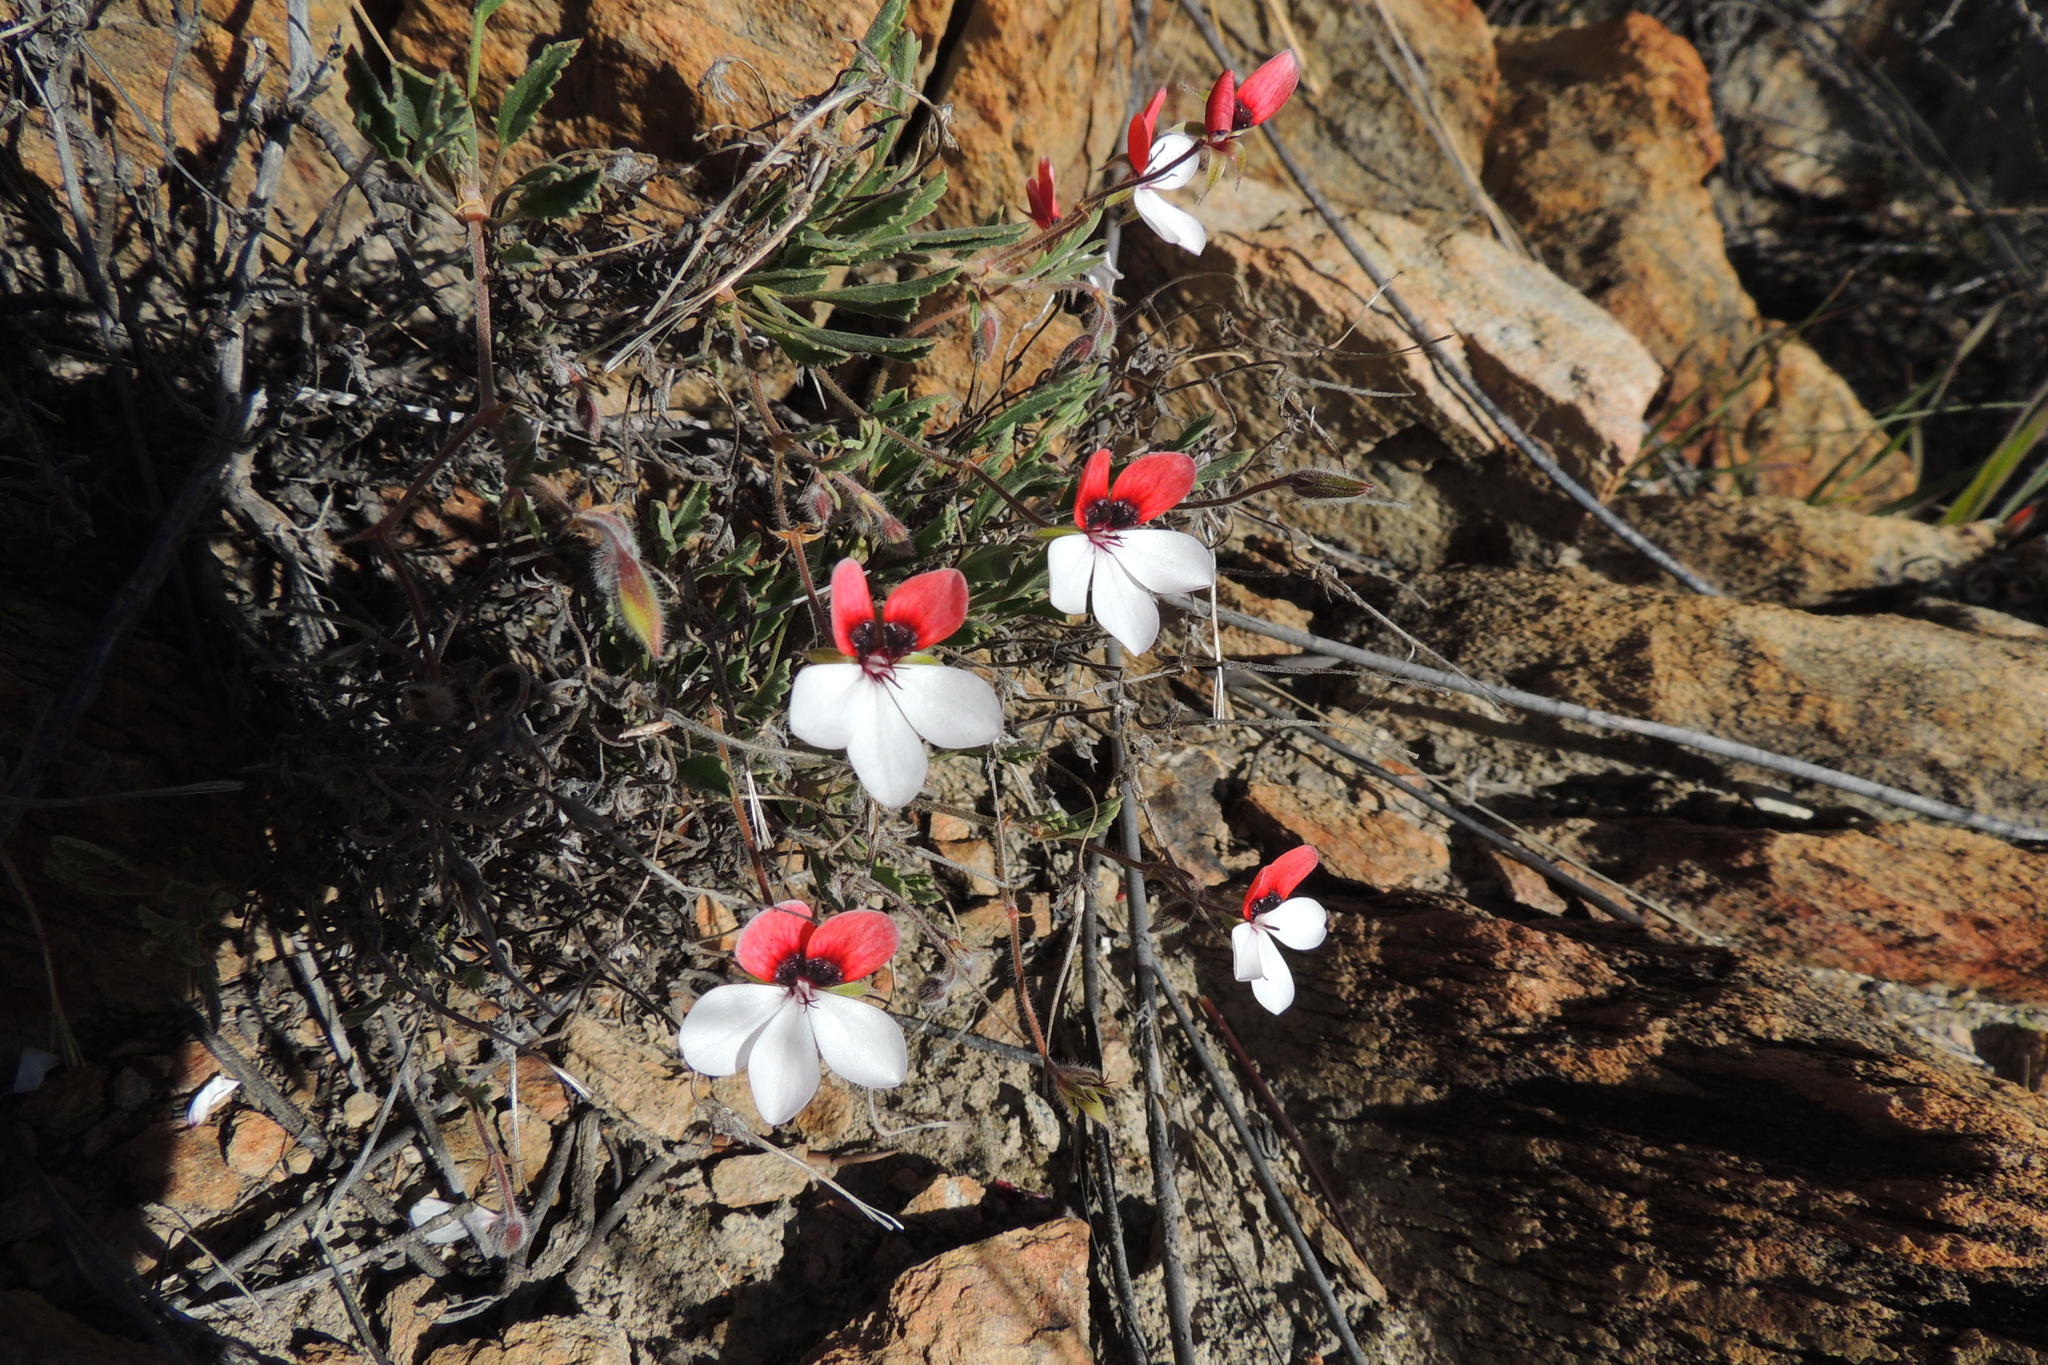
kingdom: Plantae
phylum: Tracheophyta
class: Magnoliopsida
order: Geraniales
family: Geraniaceae
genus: Pelargonium
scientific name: Pelargonium tricolor
